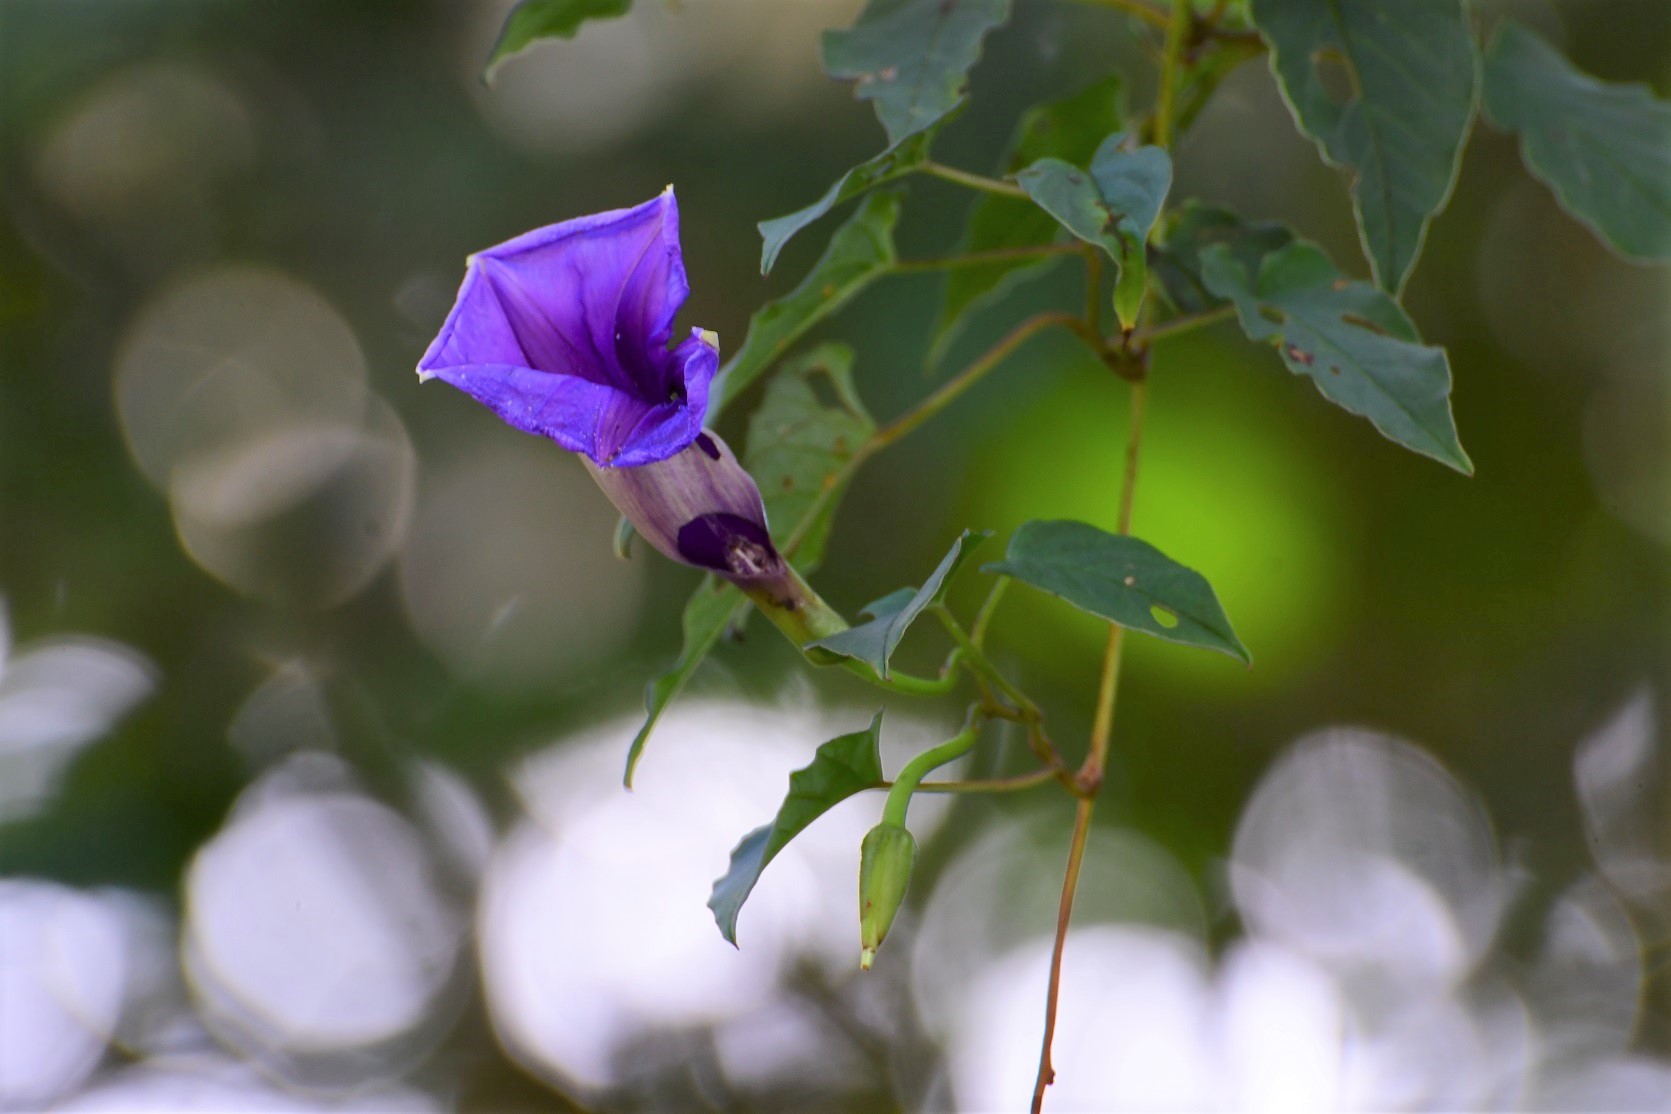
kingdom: Plantae
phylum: Tracheophyta
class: Magnoliopsida
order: Solanales
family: Convolvulaceae
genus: Ipomoea
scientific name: Ipomoea lindenii
